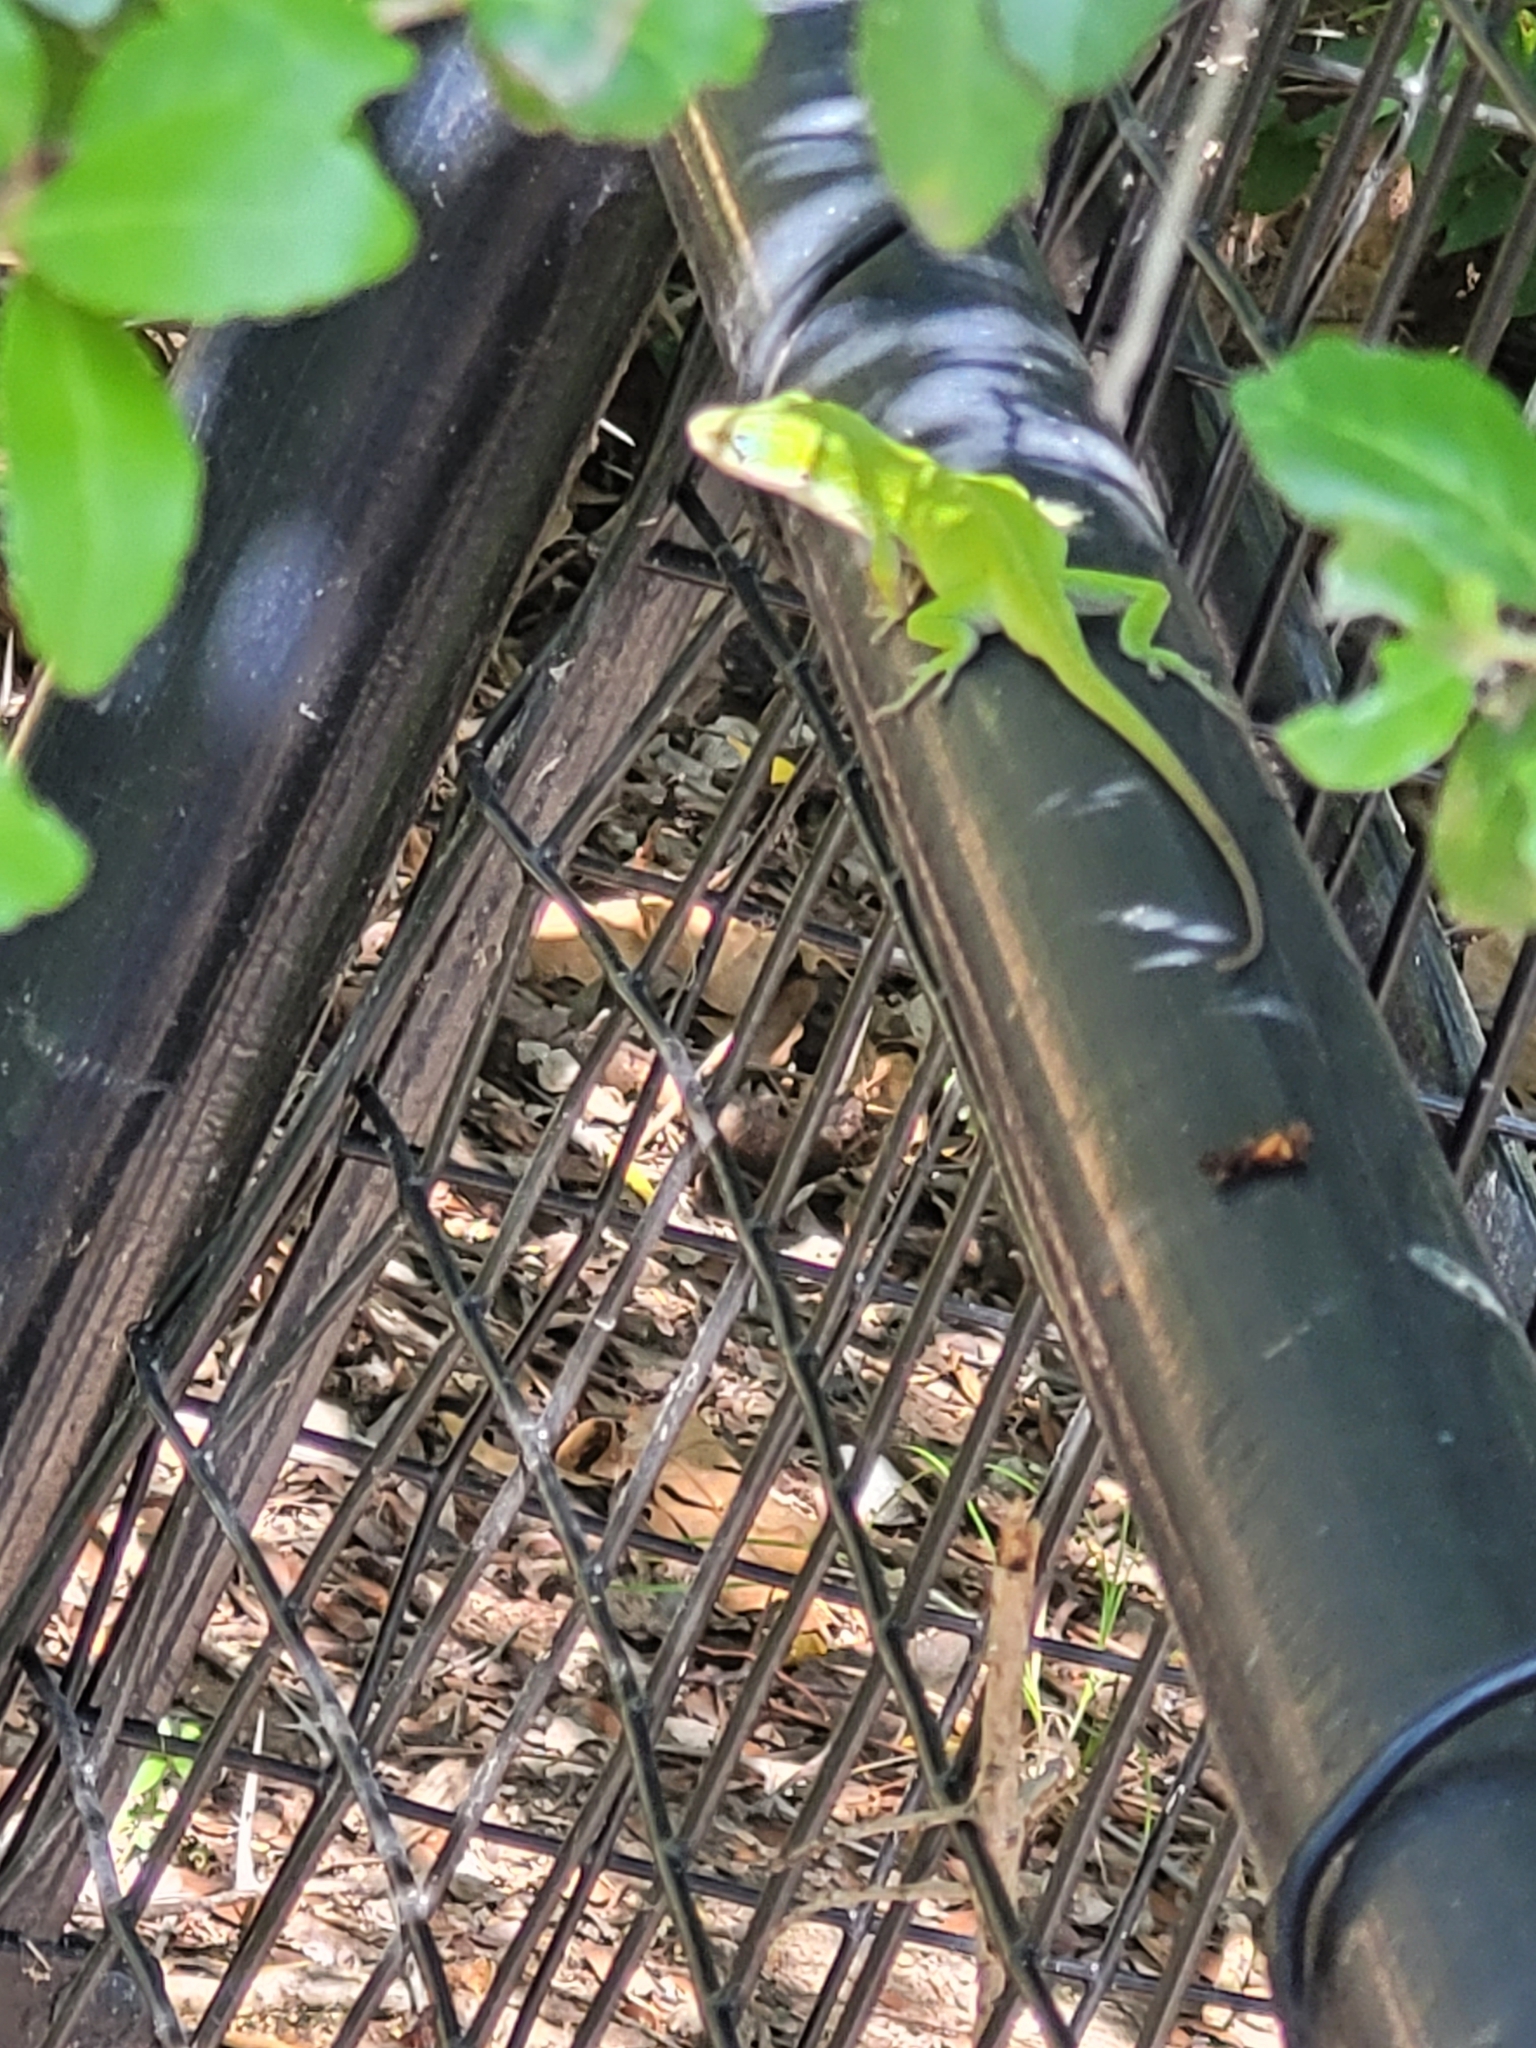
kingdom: Animalia
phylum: Chordata
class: Squamata
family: Dactyloidae
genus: Anolis
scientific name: Anolis carolinensis
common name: Green anole
